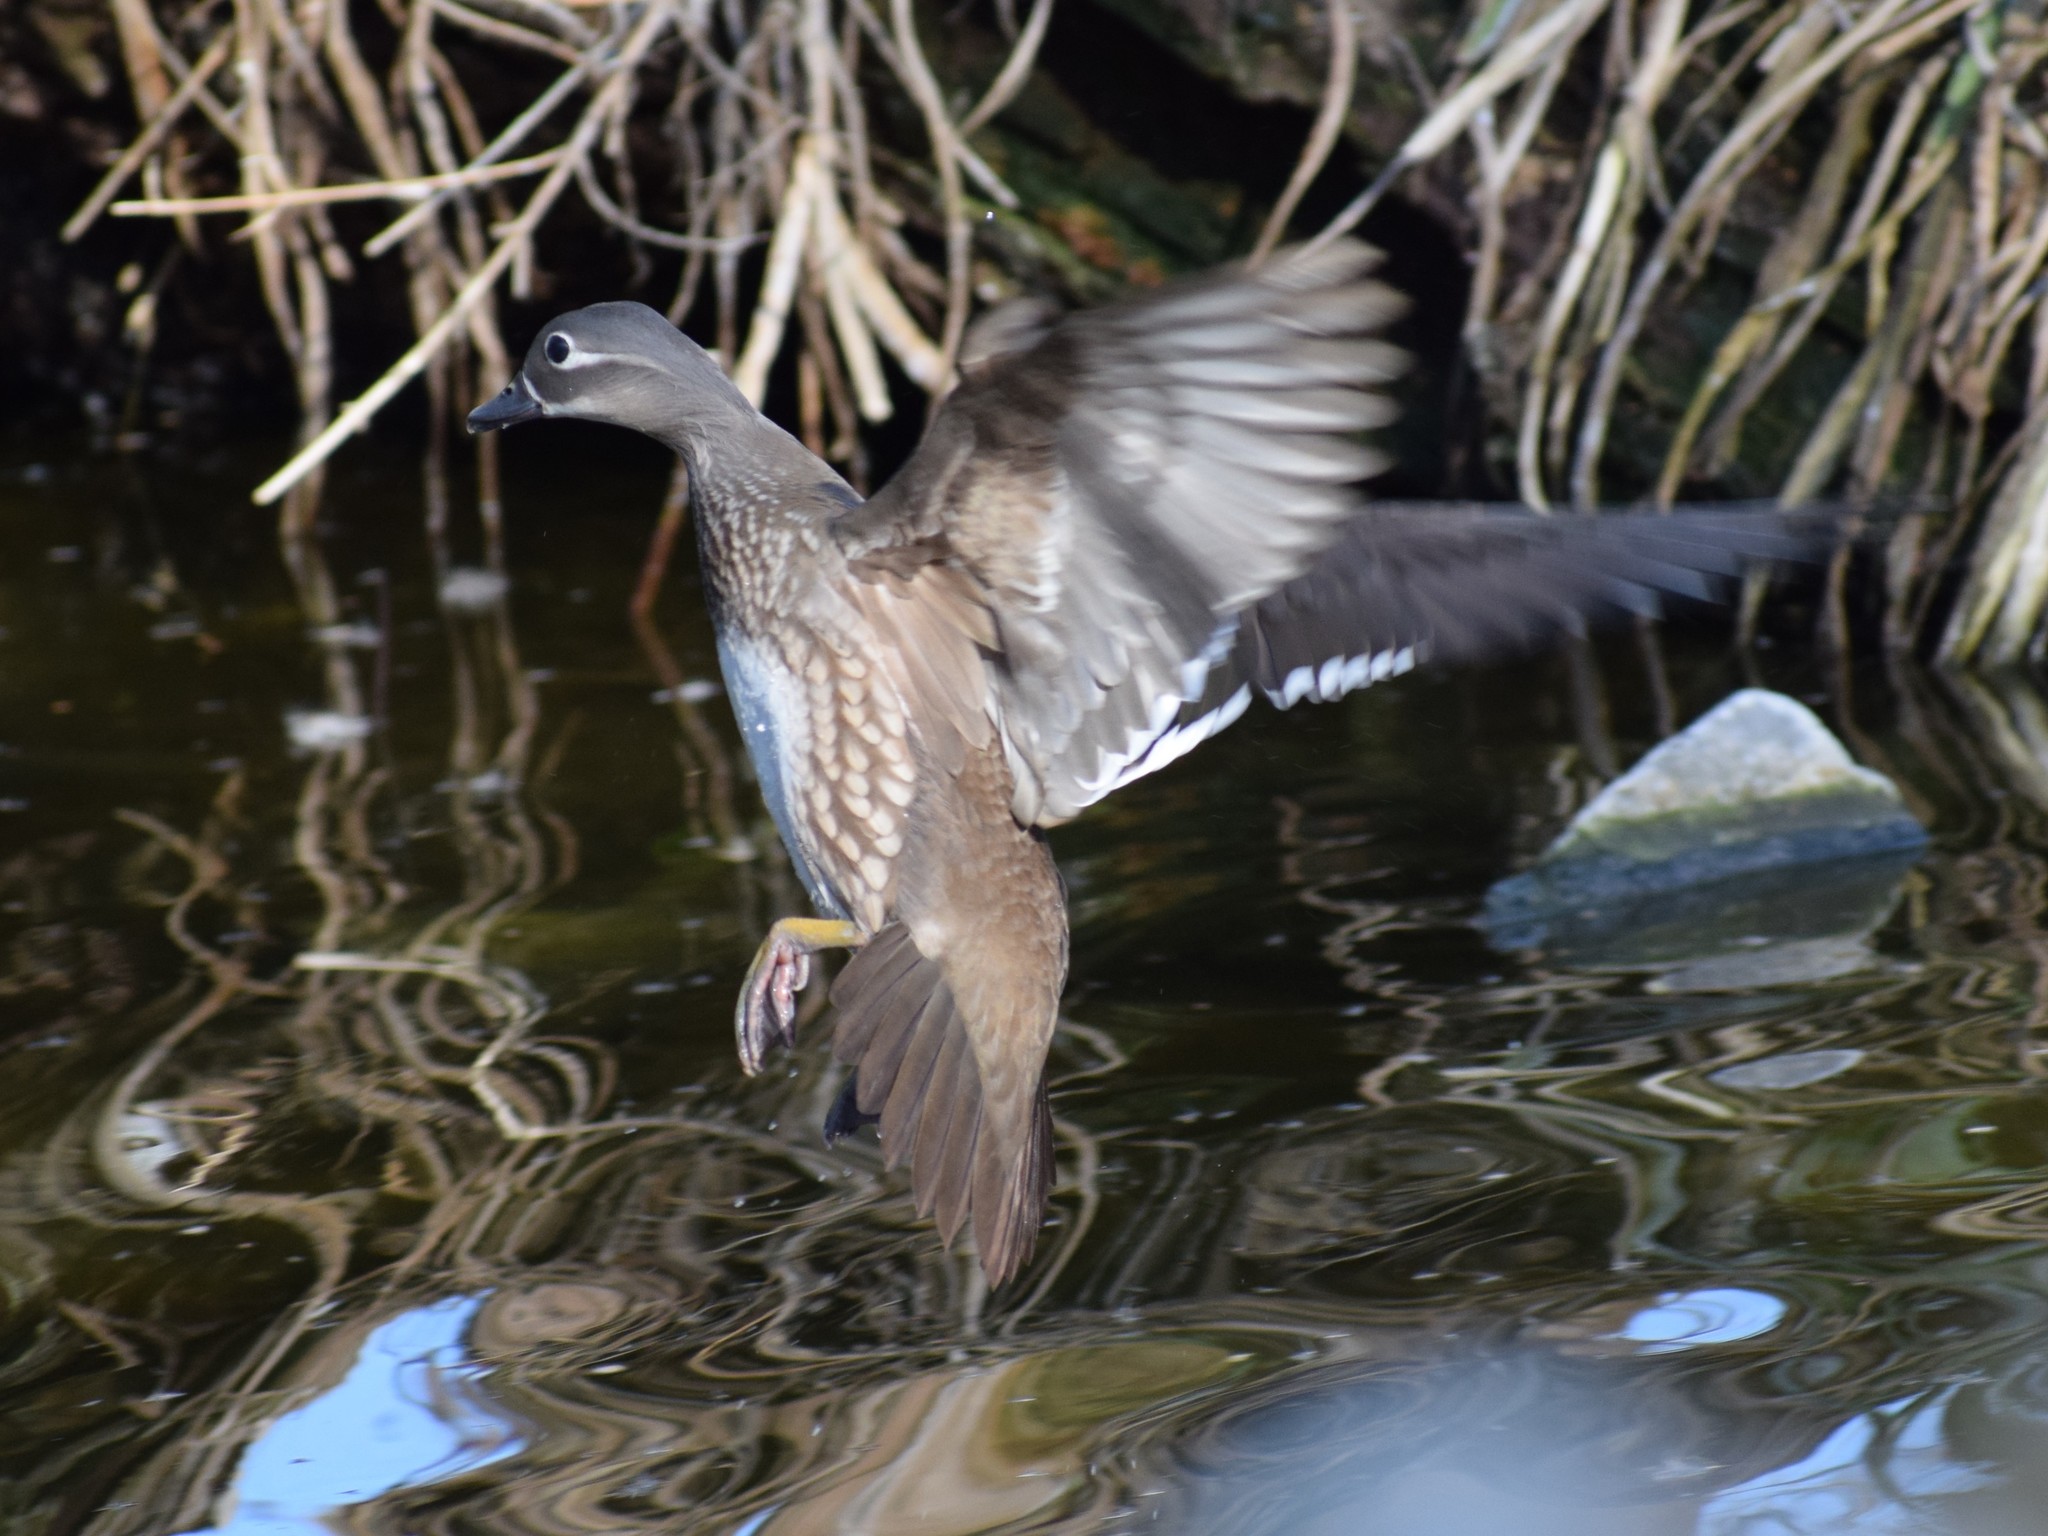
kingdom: Animalia
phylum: Chordata
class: Aves
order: Anseriformes
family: Anatidae
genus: Aix
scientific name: Aix galericulata
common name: Mandarin duck
